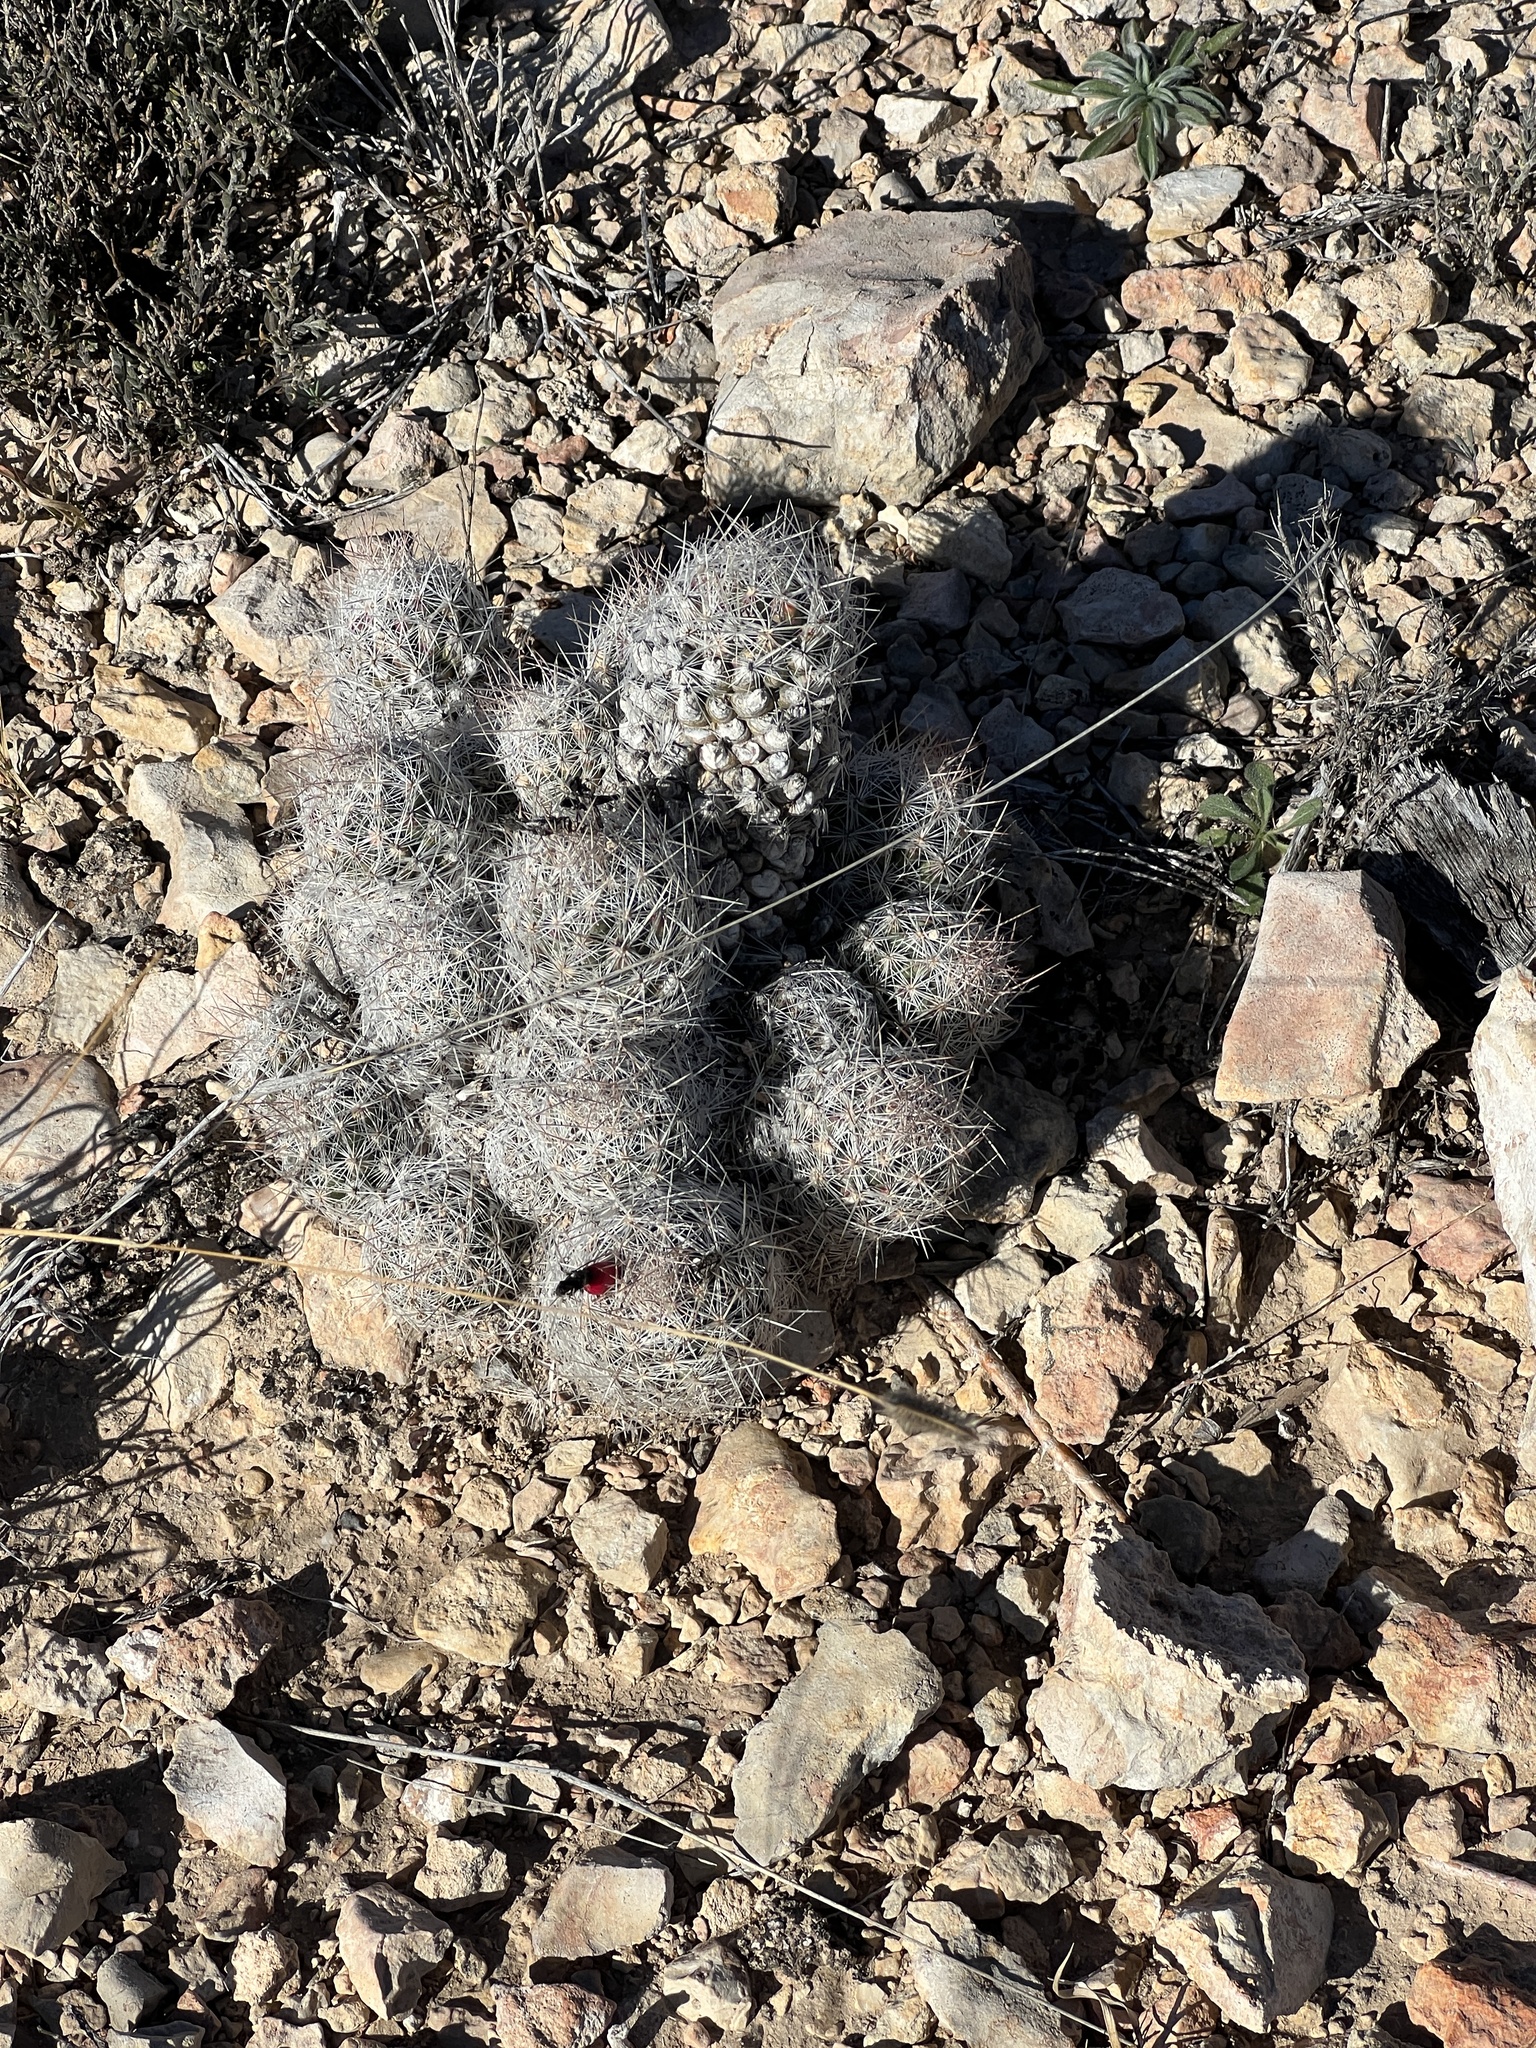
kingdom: Plantae
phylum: Tracheophyta
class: Magnoliopsida
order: Caryophyllales
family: Cactaceae
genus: Pelecyphora
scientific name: Pelecyphora tuberculosa
